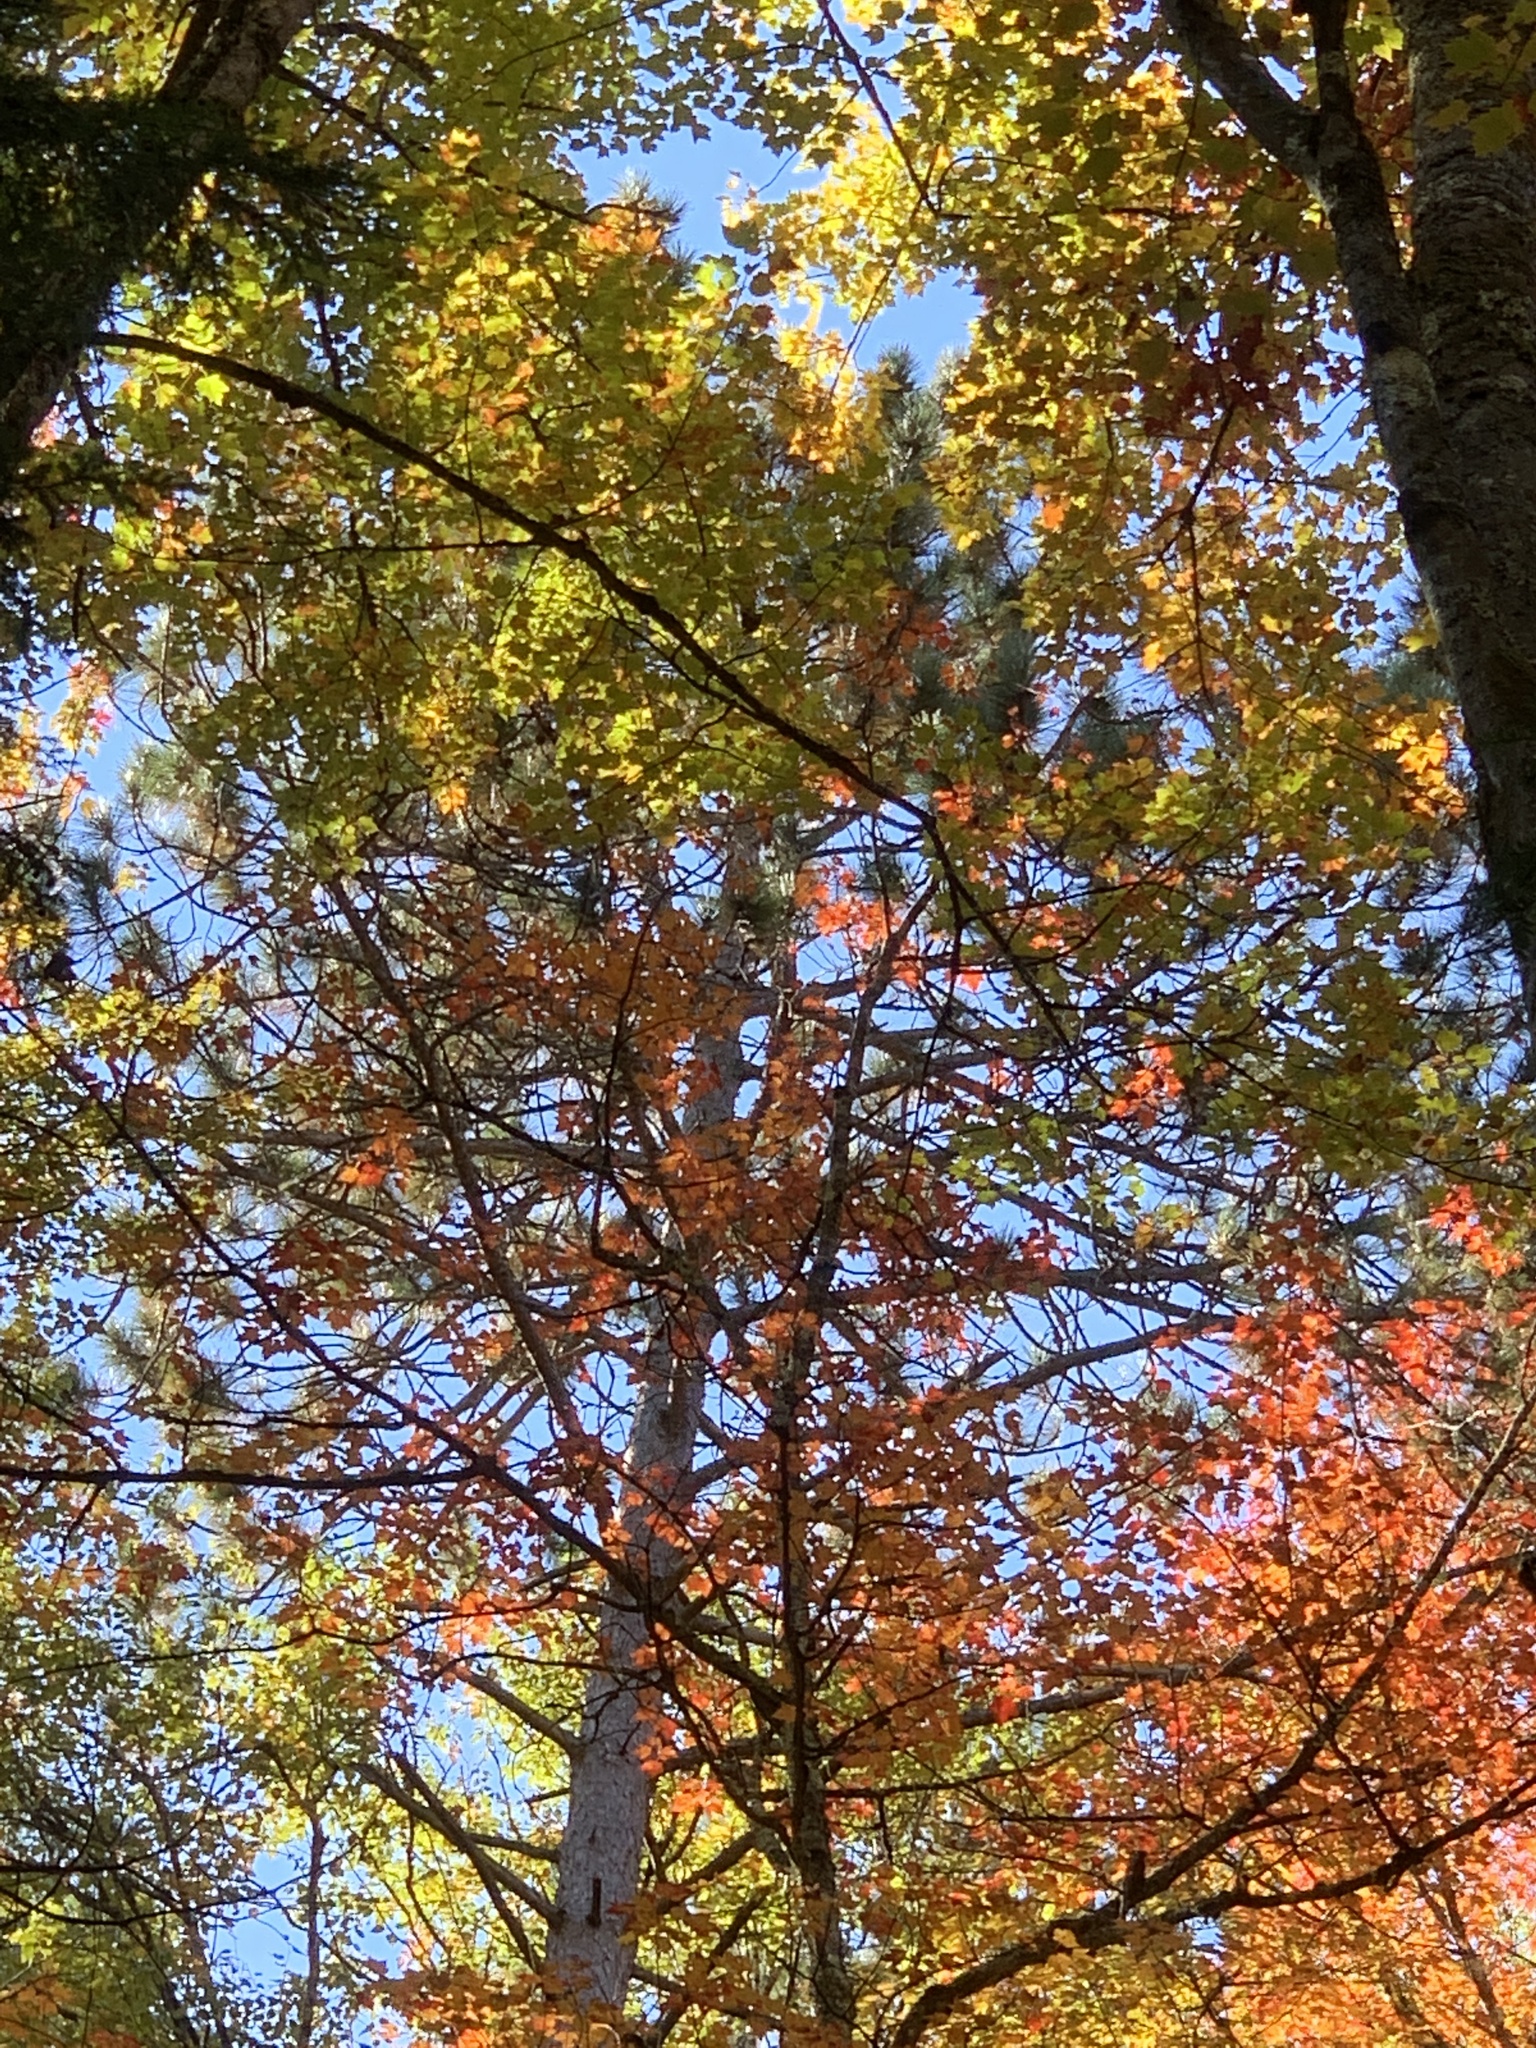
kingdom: Plantae
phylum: Tracheophyta
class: Pinopsida
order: Pinales
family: Pinaceae
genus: Pinus
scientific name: Pinus resinosa
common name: Norway pine
